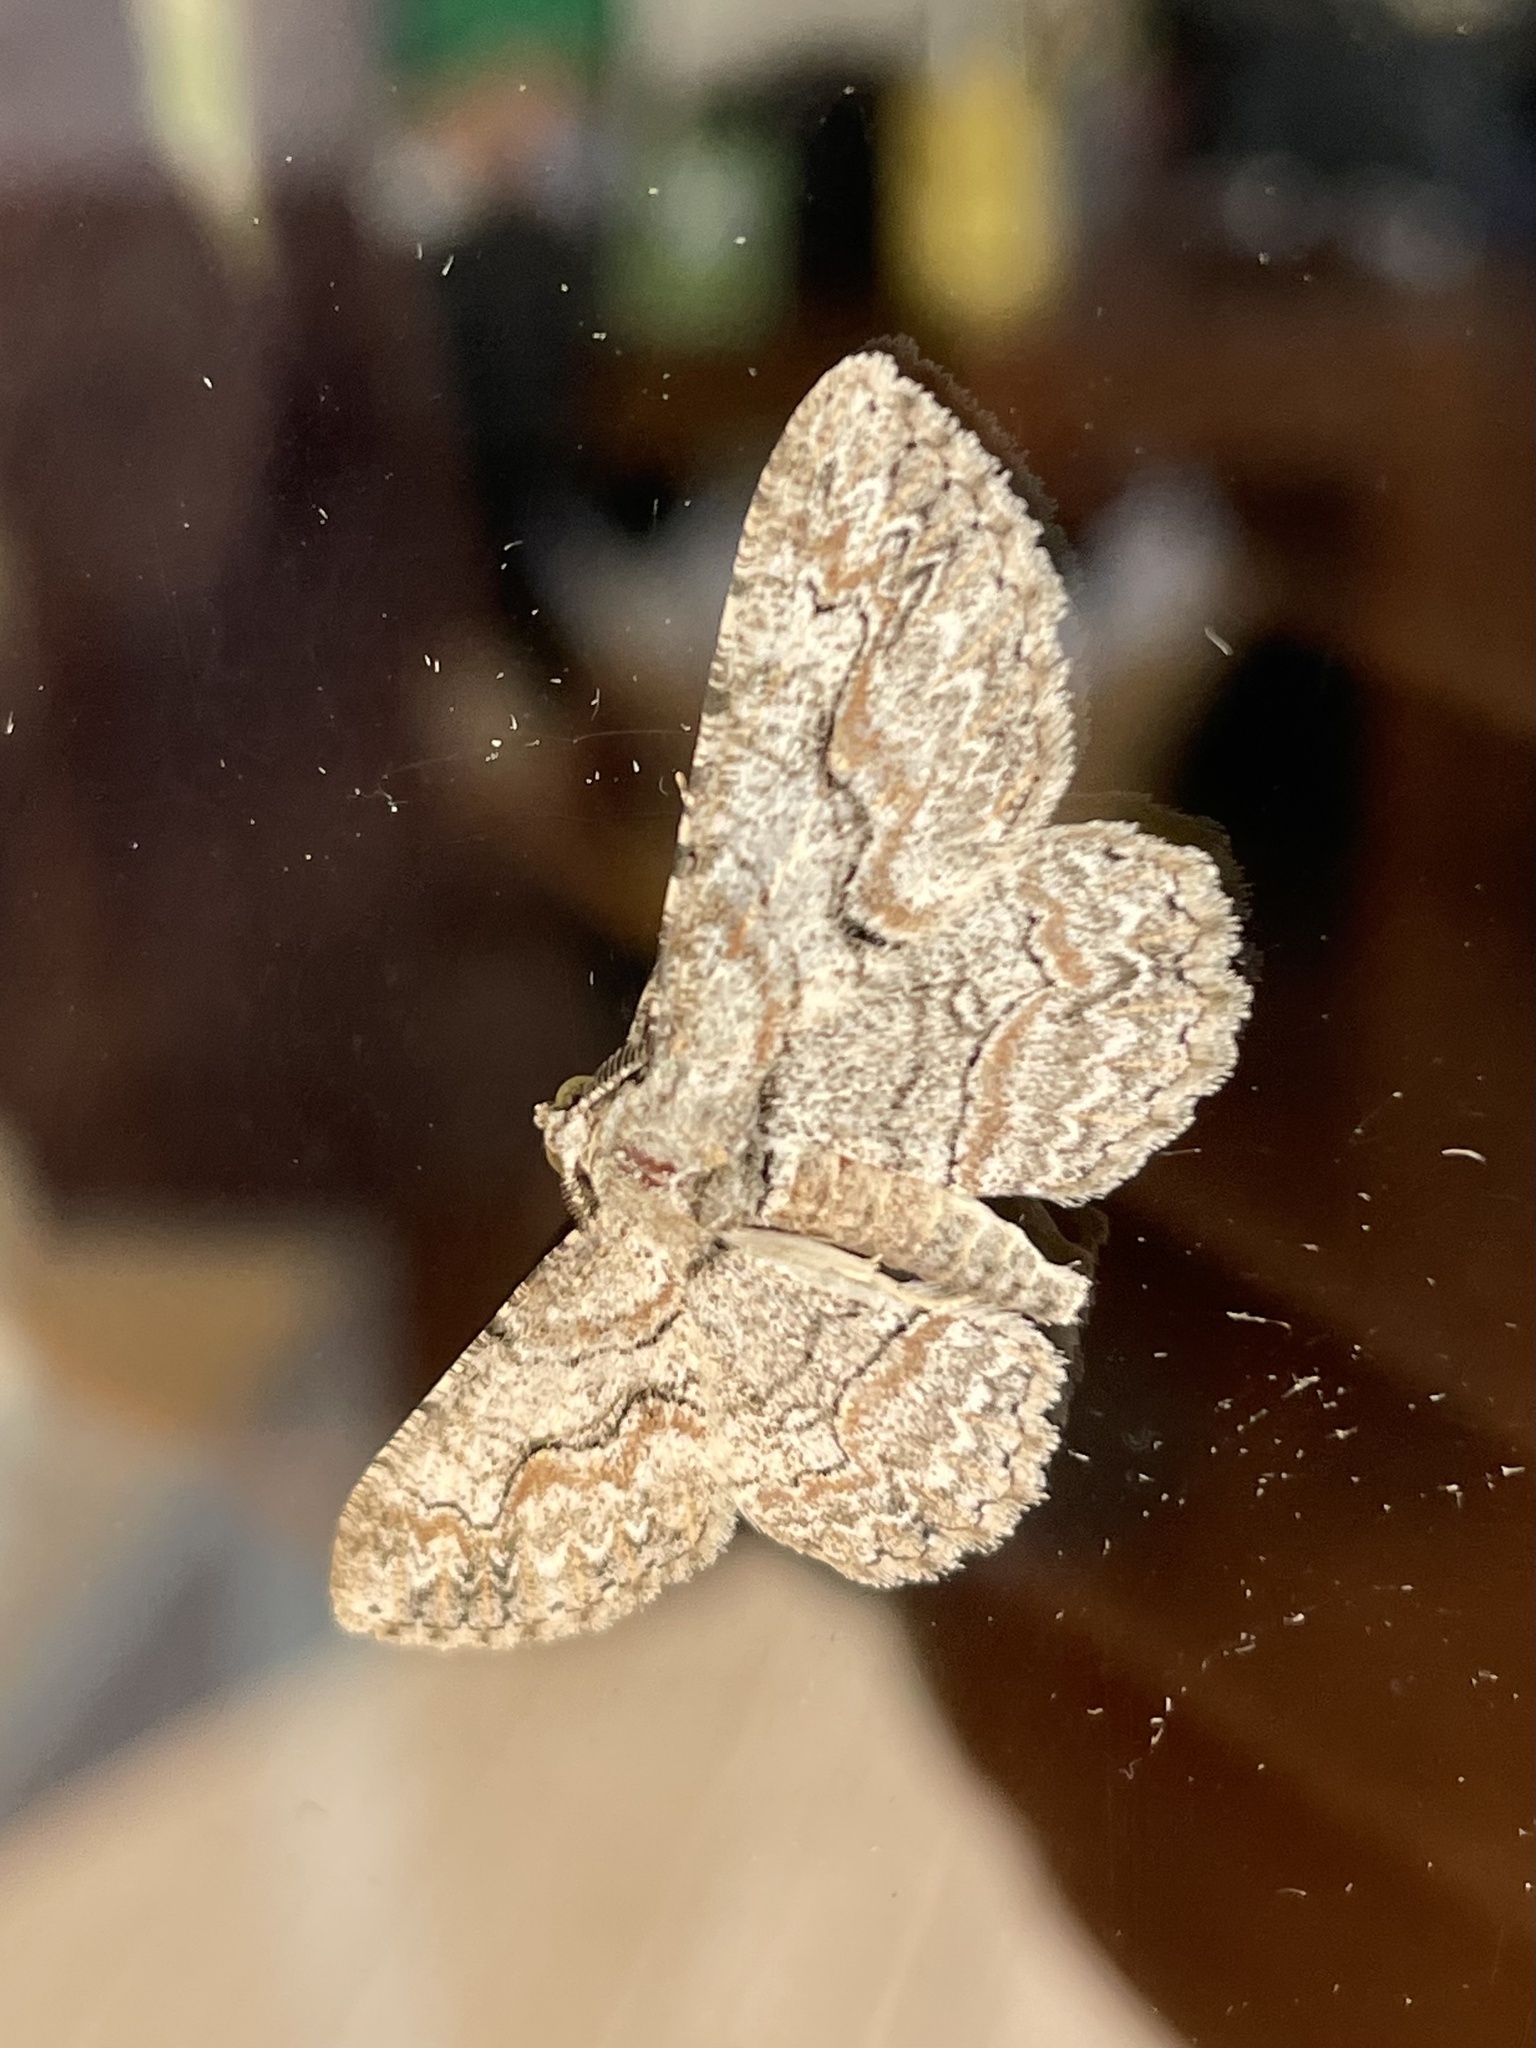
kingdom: Animalia
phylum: Arthropoda
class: Insecta
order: Lepidoptera
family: Geometridae
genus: Iridopsis
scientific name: Iridopsis defectaria
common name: Brown-shaded gray
